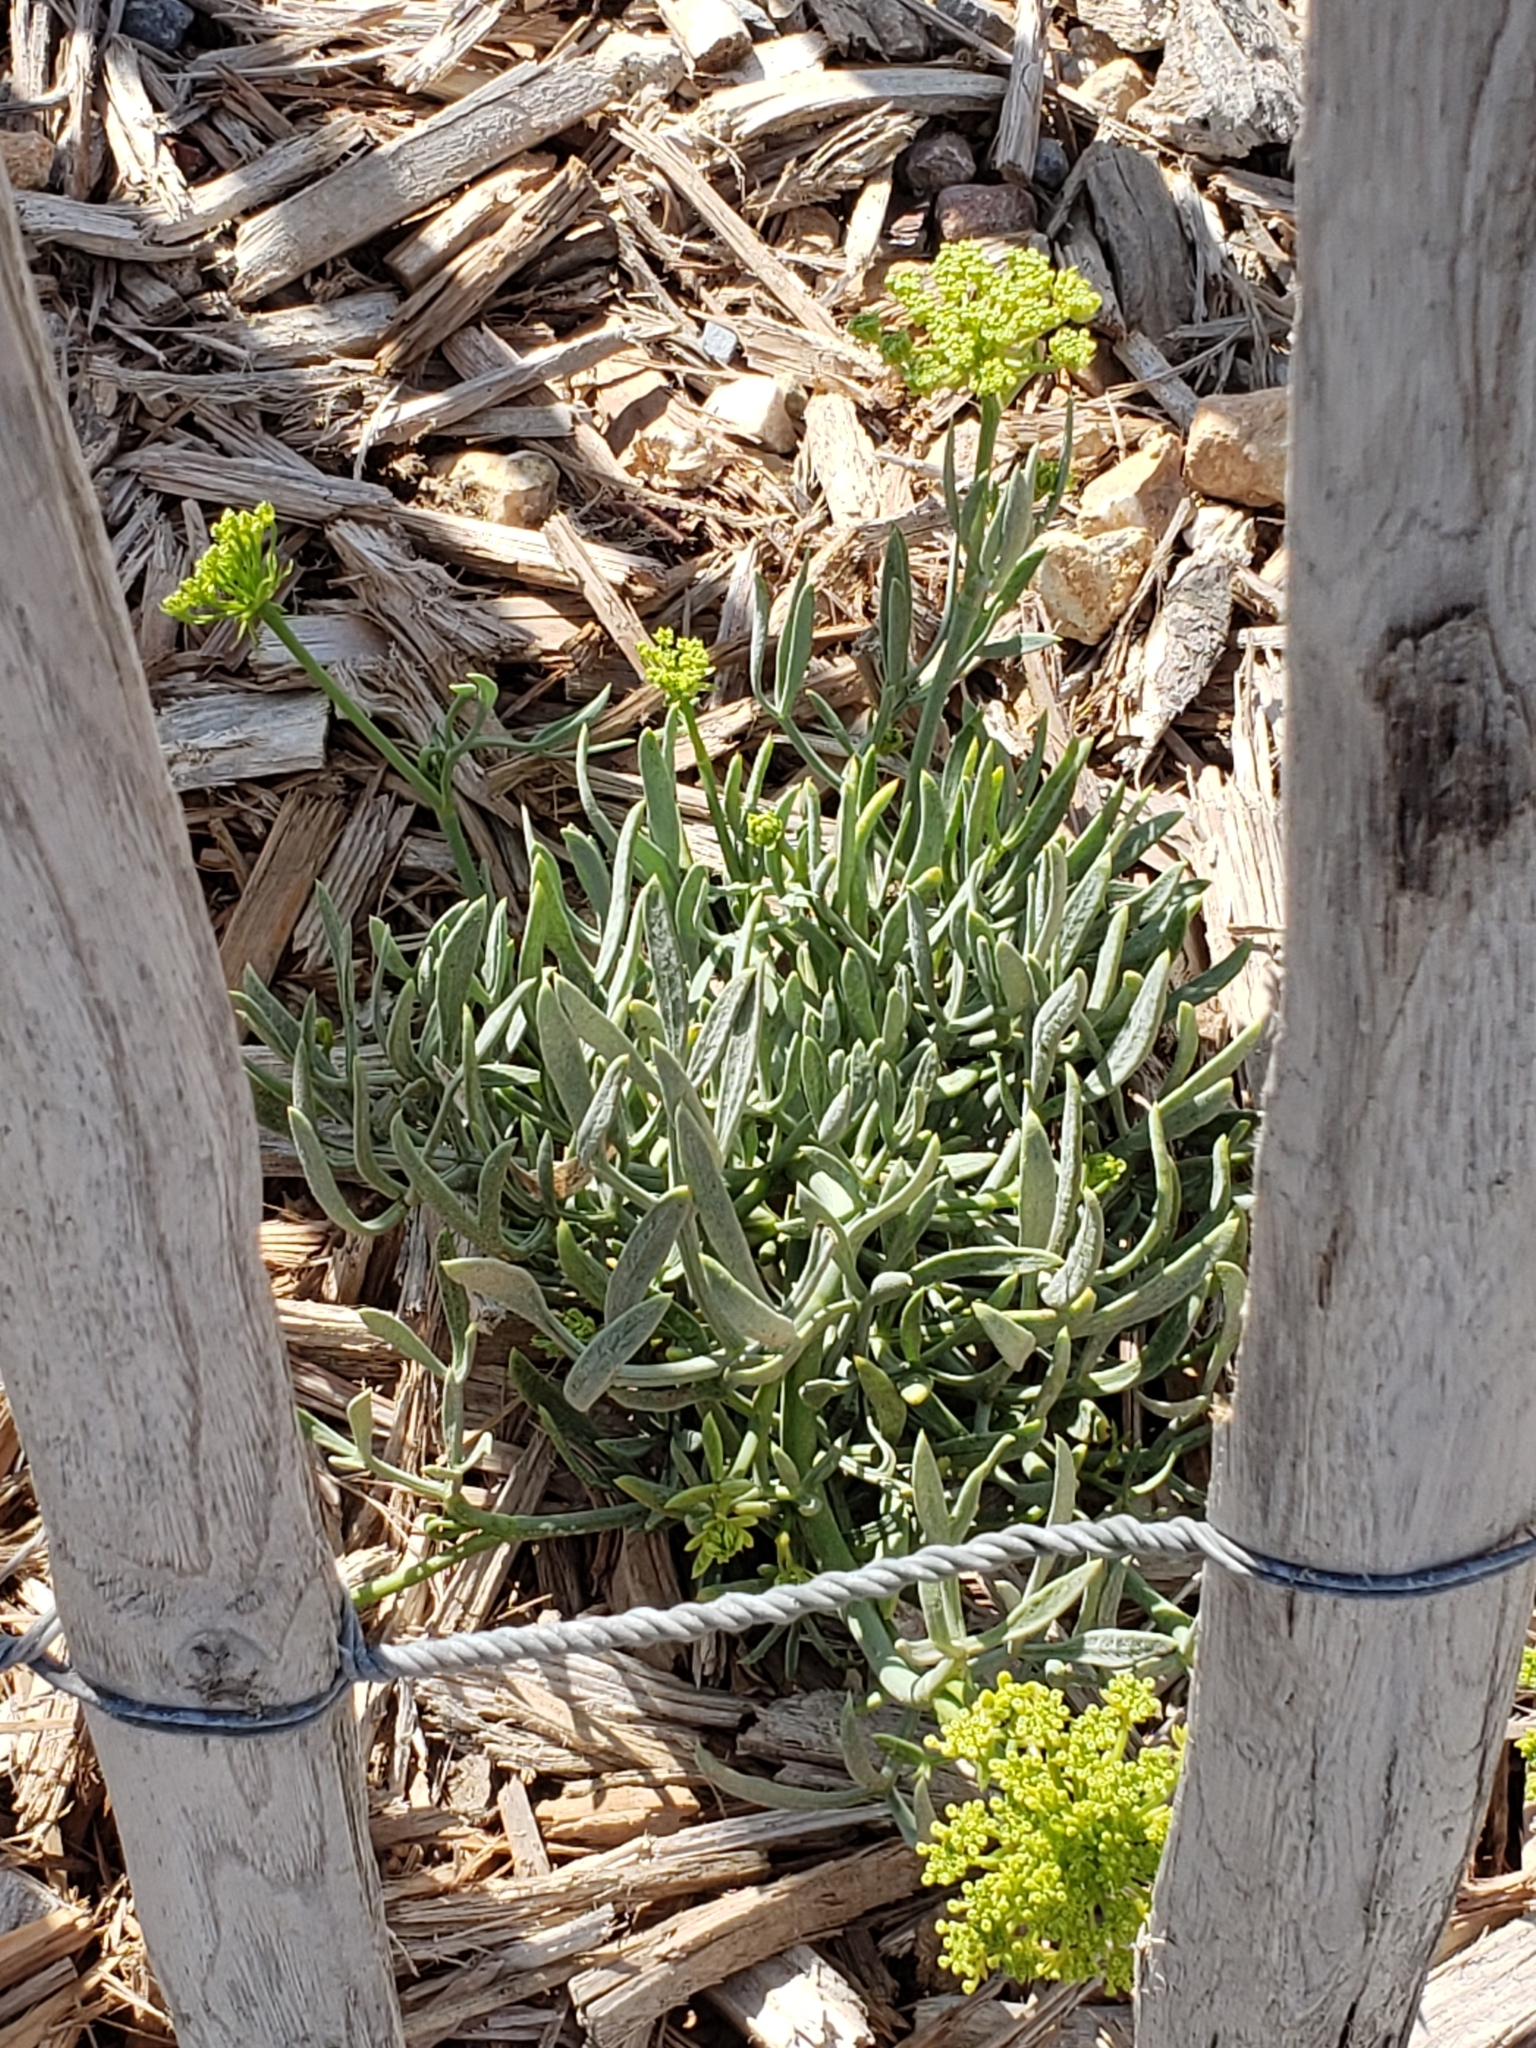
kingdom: Plantae
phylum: Tracheophyta
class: Magnoliopsida
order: Apiales
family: Apiaceae
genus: Crithmum
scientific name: Crithmum maritimum
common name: Rock samphire
